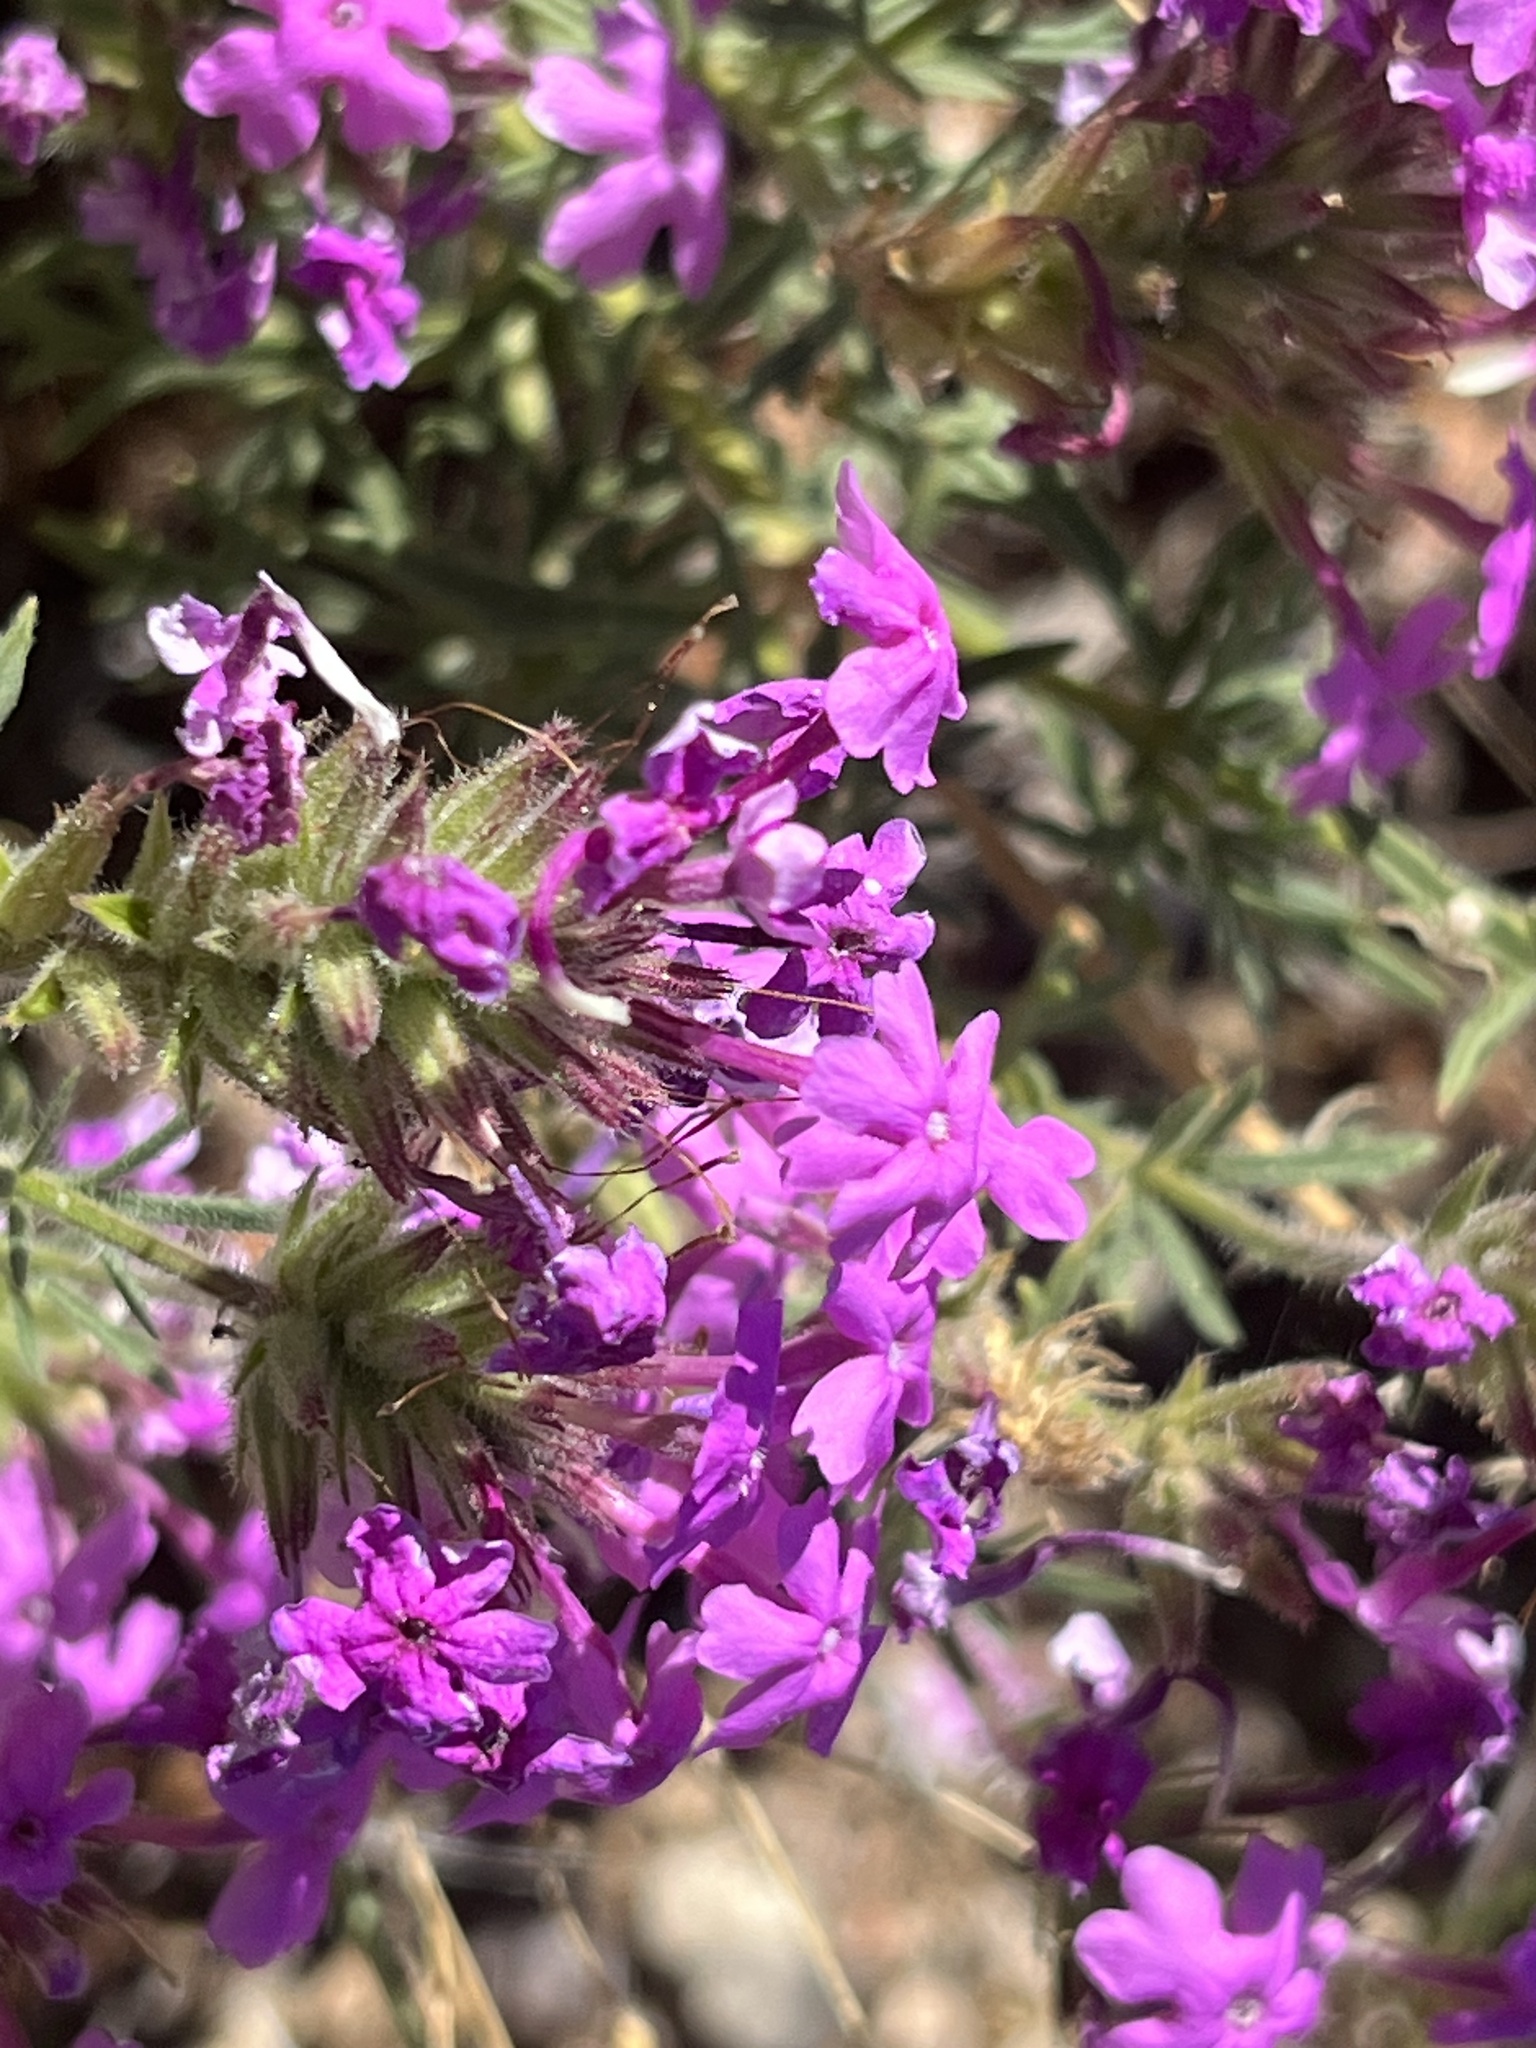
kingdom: Plantae
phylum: Tracheophyta
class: Magnoliopsida
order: Lamiales
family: Verbenaceae
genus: Verbena
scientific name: Verbena bipinnatifida
